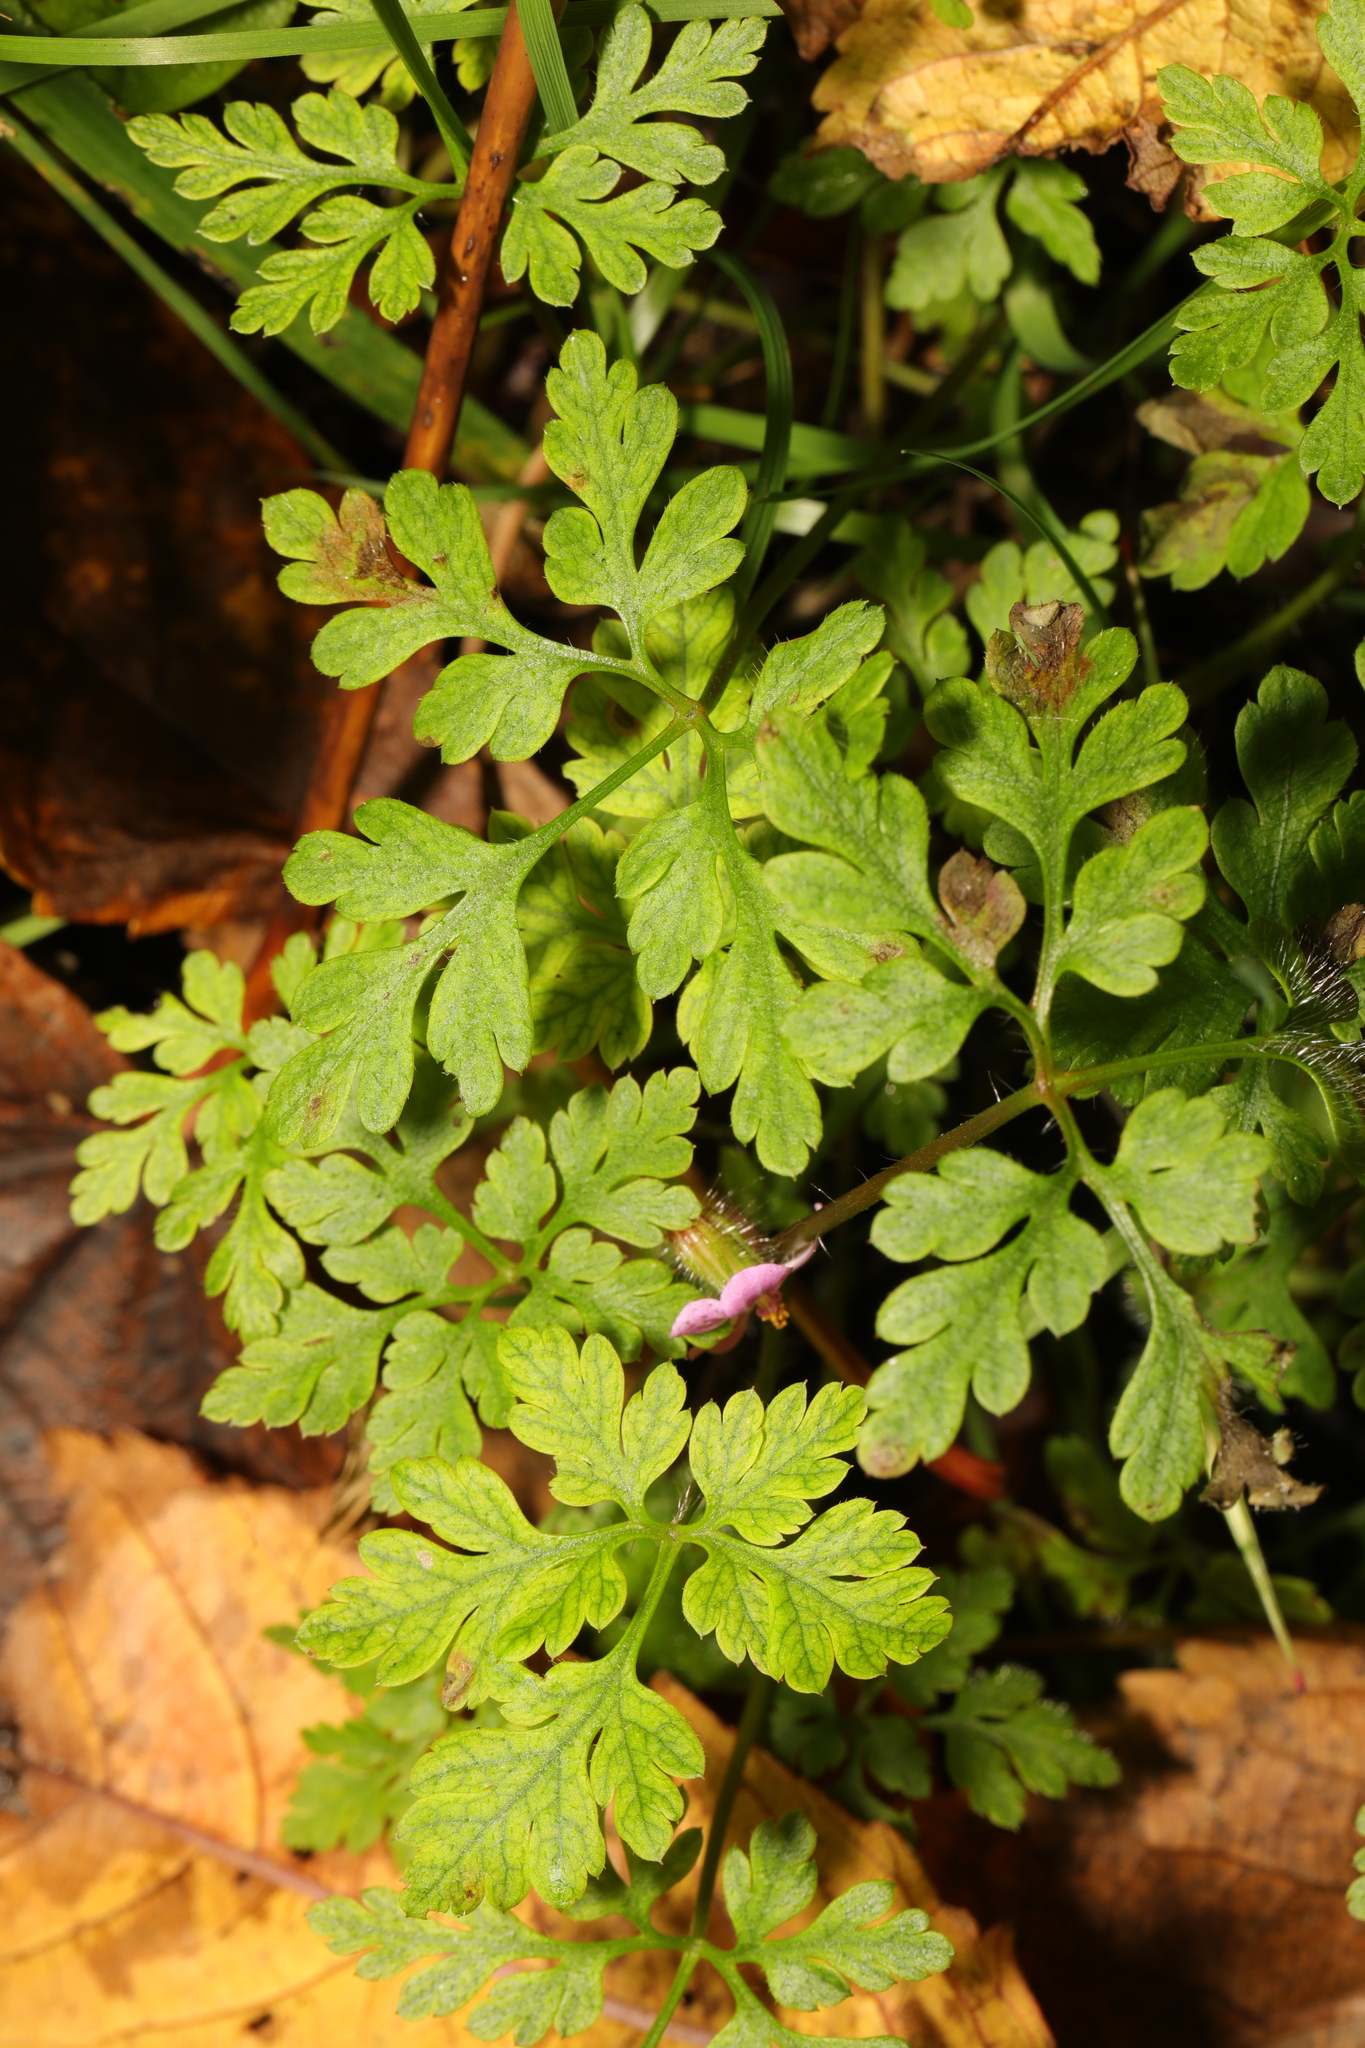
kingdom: Plantae
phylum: Tracheophyta
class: Magnoliopsida
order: Geraniales
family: Geraniaceae
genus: Geranium
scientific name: Geranium robertianum
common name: Herb-robert
